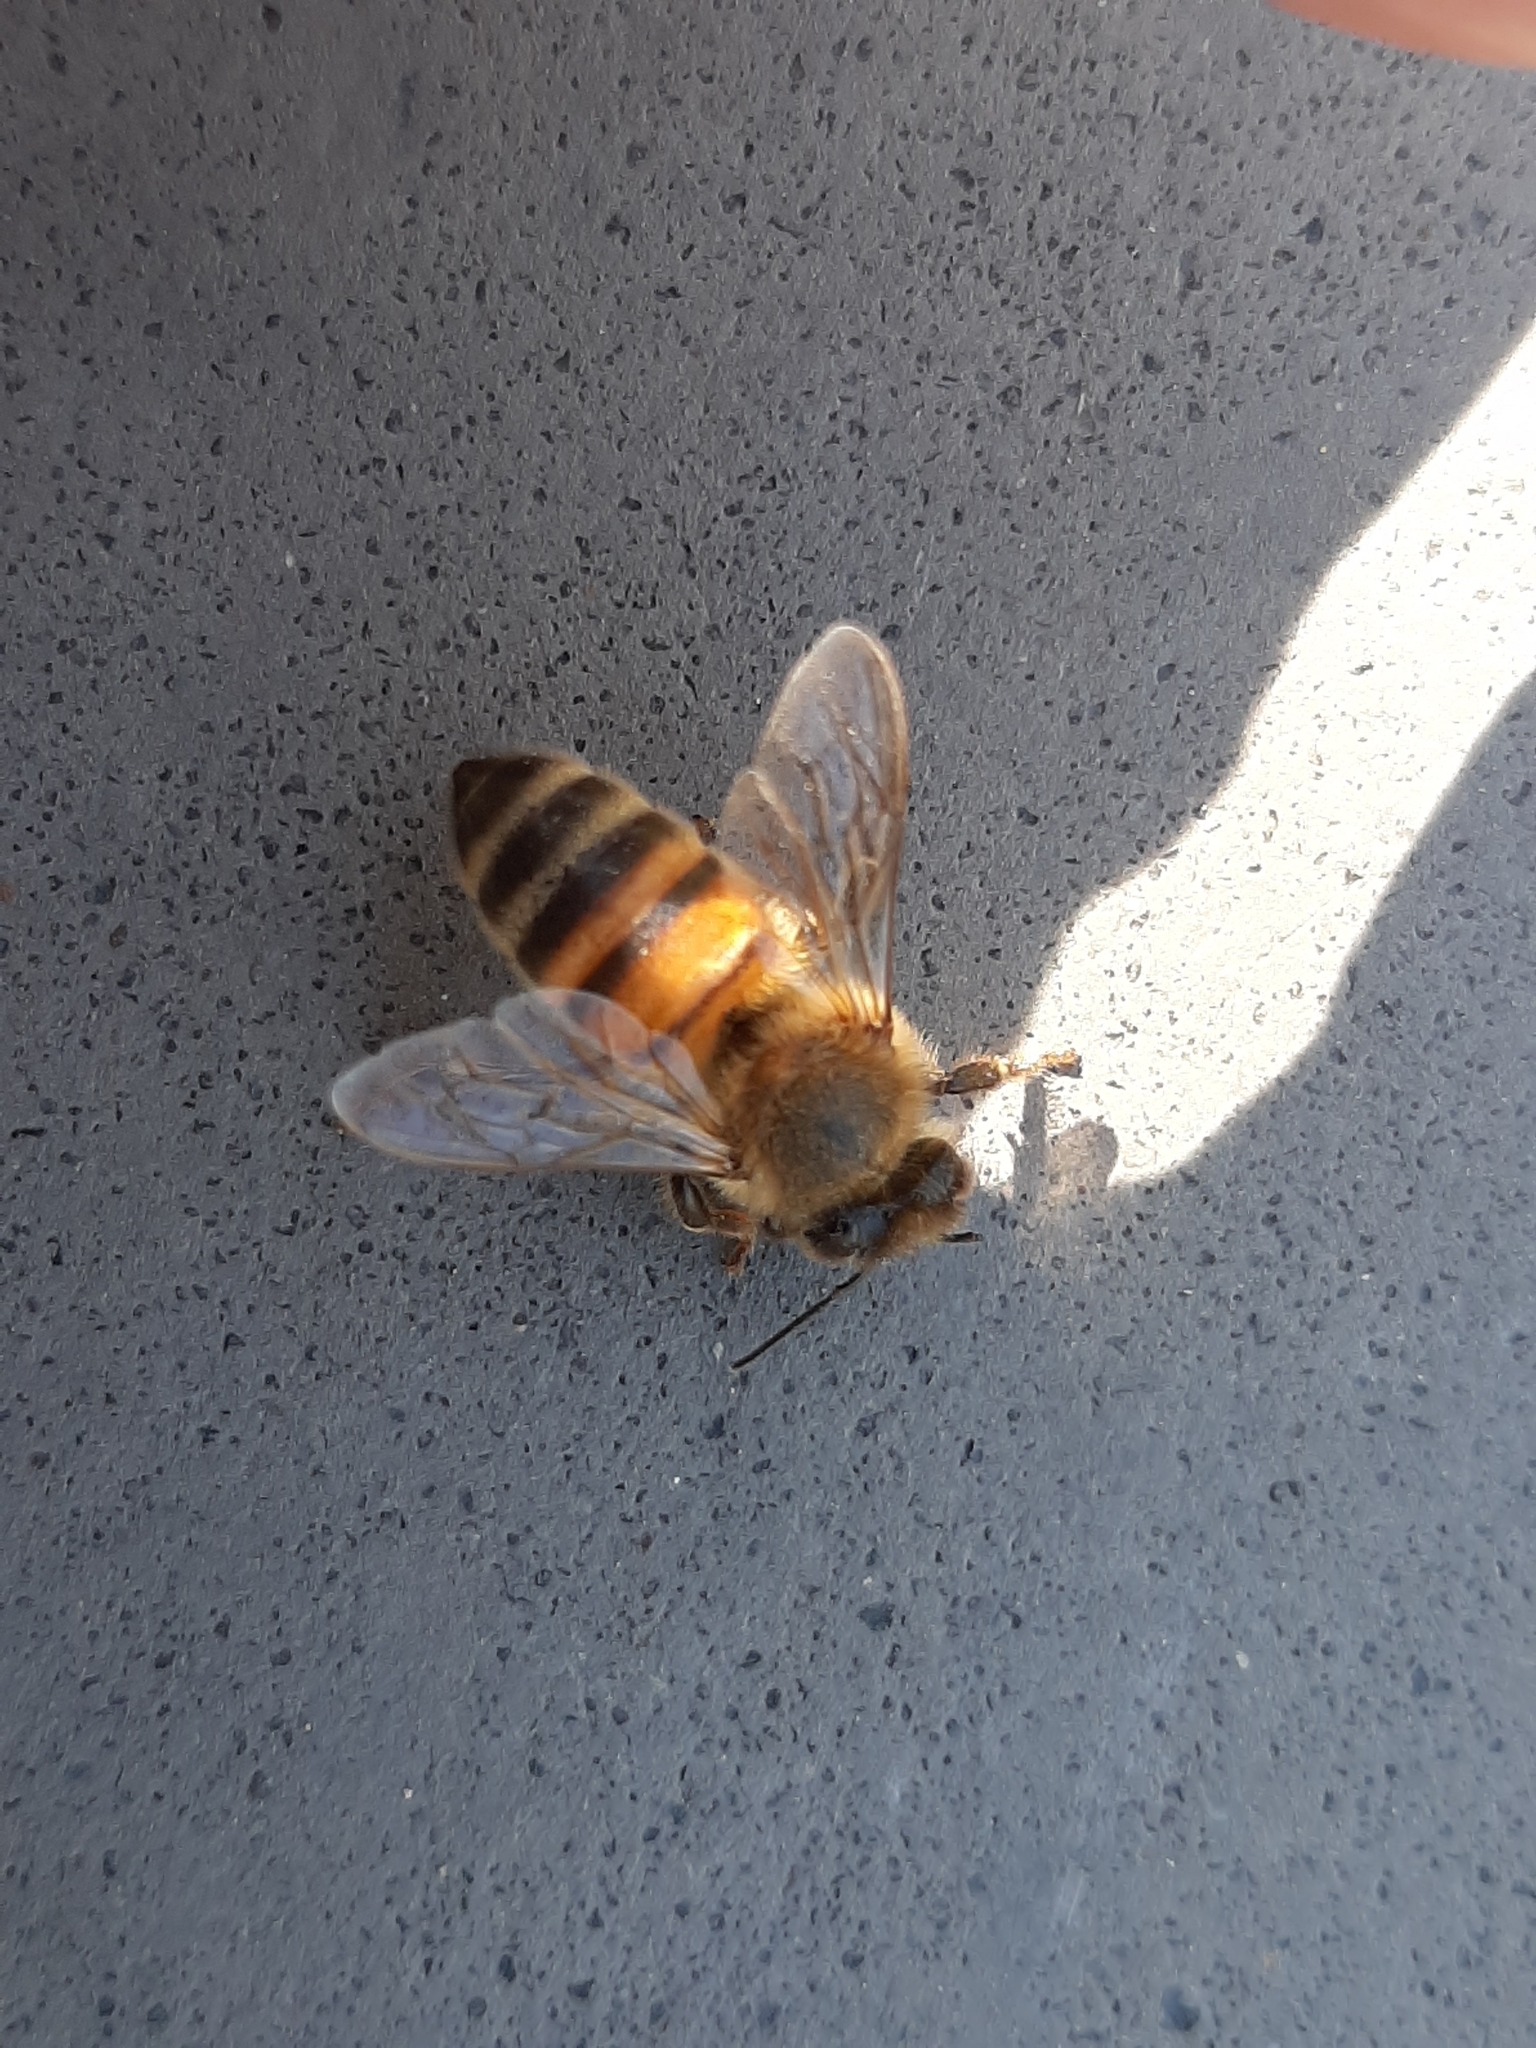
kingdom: Animalia
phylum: Arthropoda
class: Insecta
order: Hymenoptera
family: Apidae
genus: Apis
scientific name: Apis mellifera
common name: Honey bee
